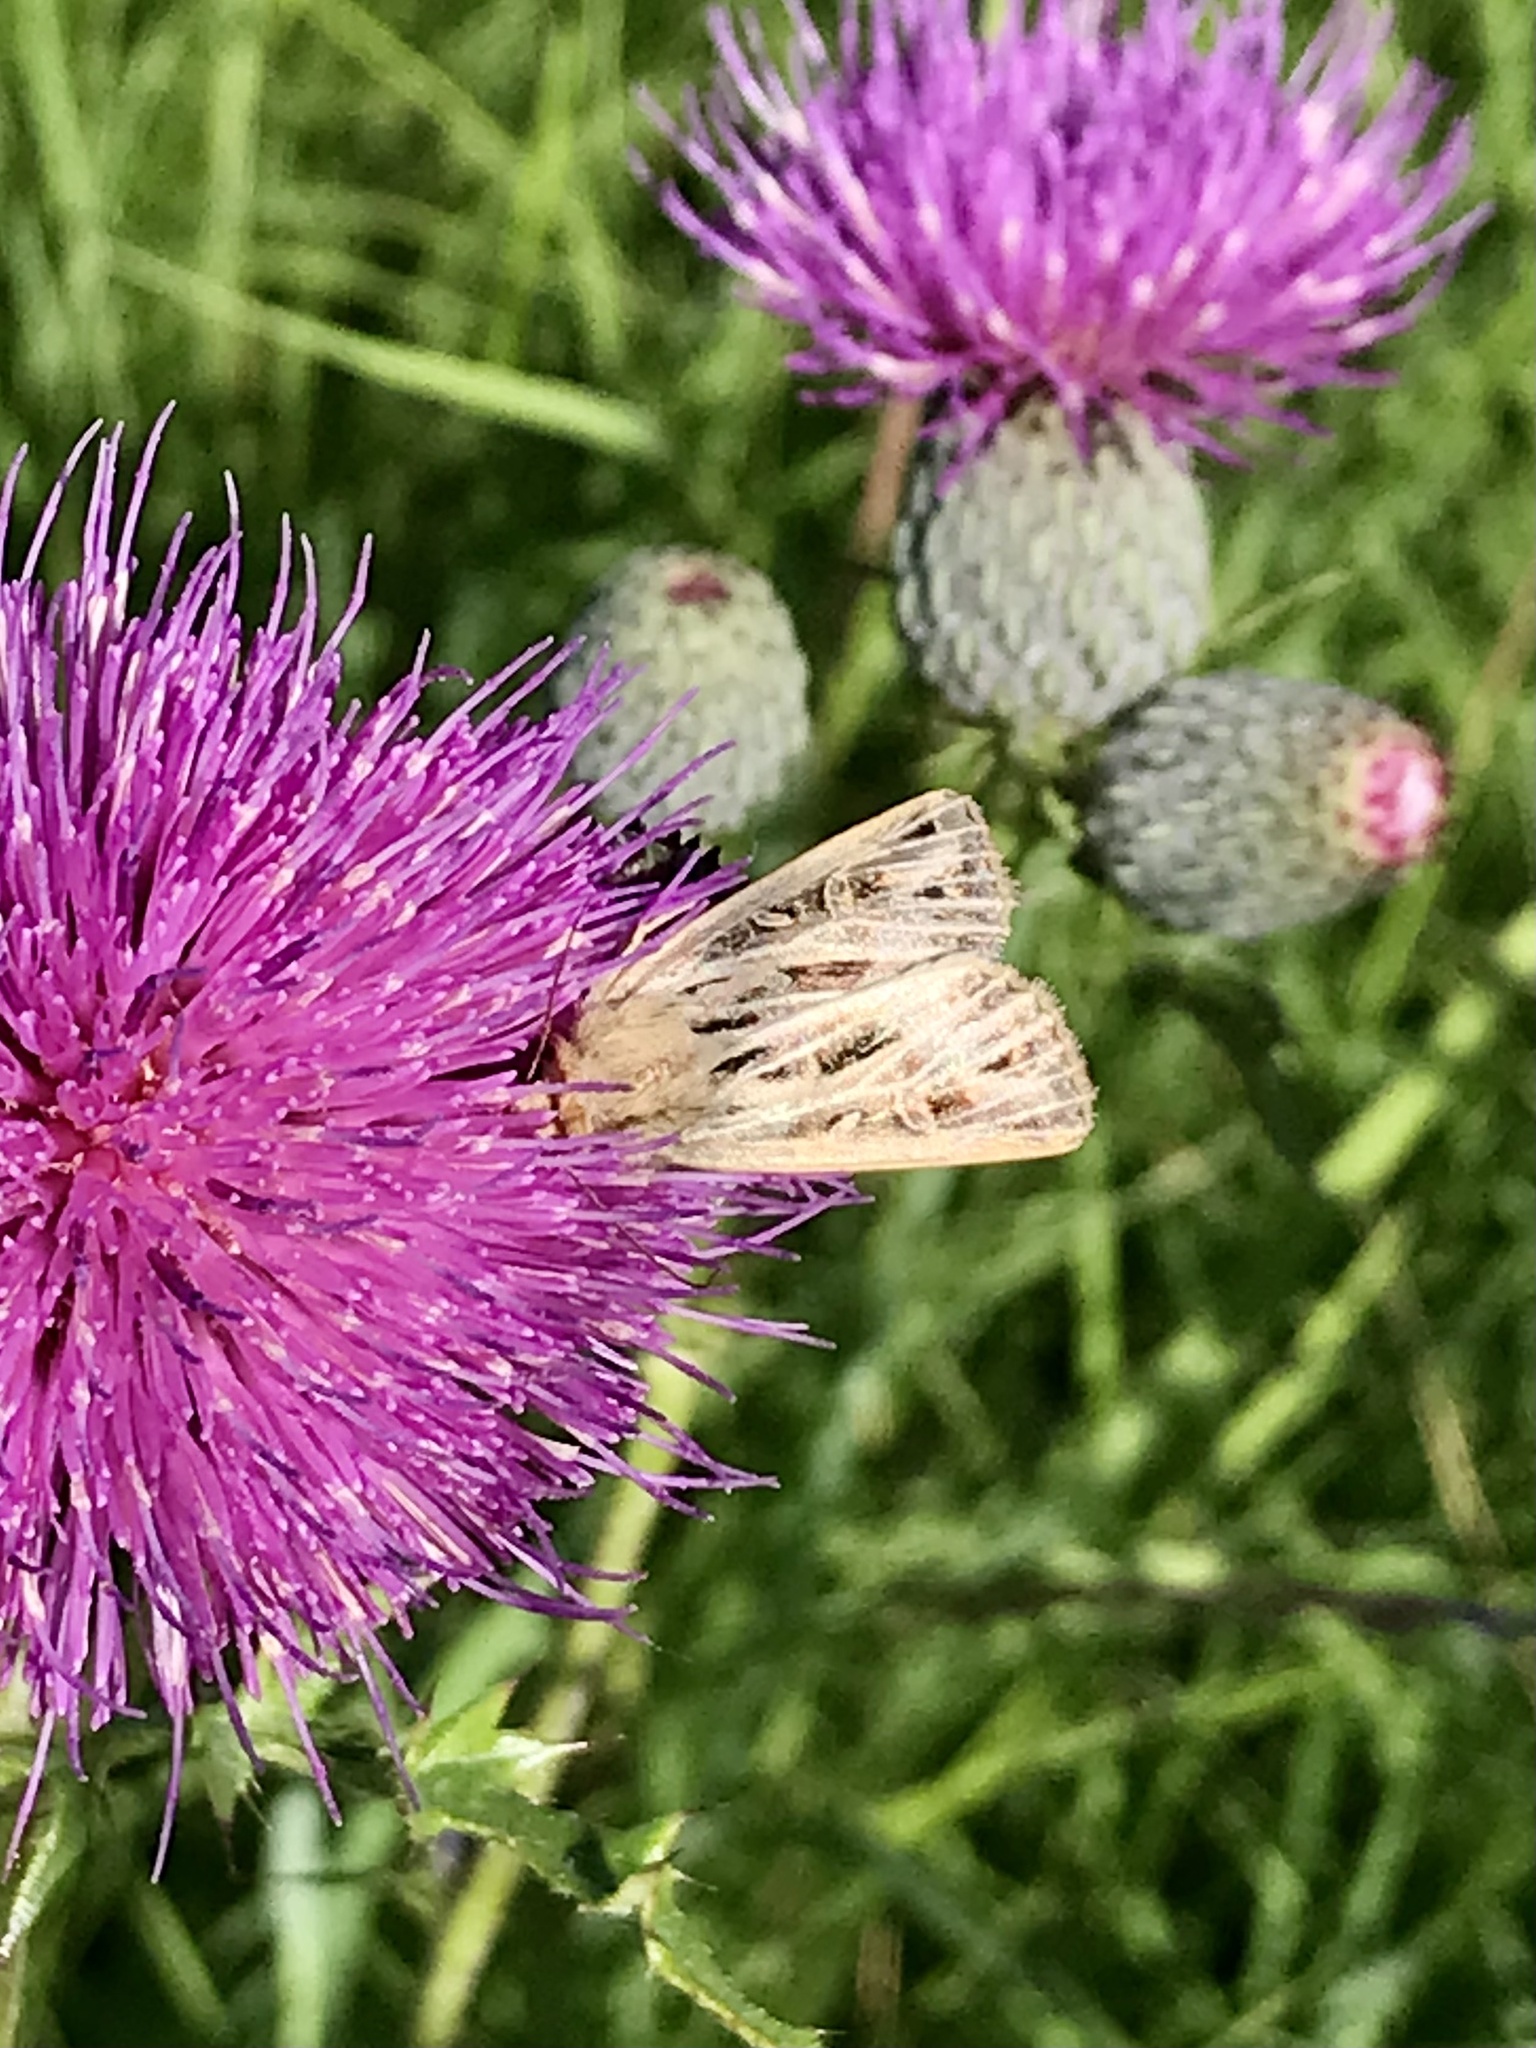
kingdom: Animalia
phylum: Arthropoda
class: Insecta
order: Lepidoptera
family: Noctuidae
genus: Apamea
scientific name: Apamea niveivenosa
